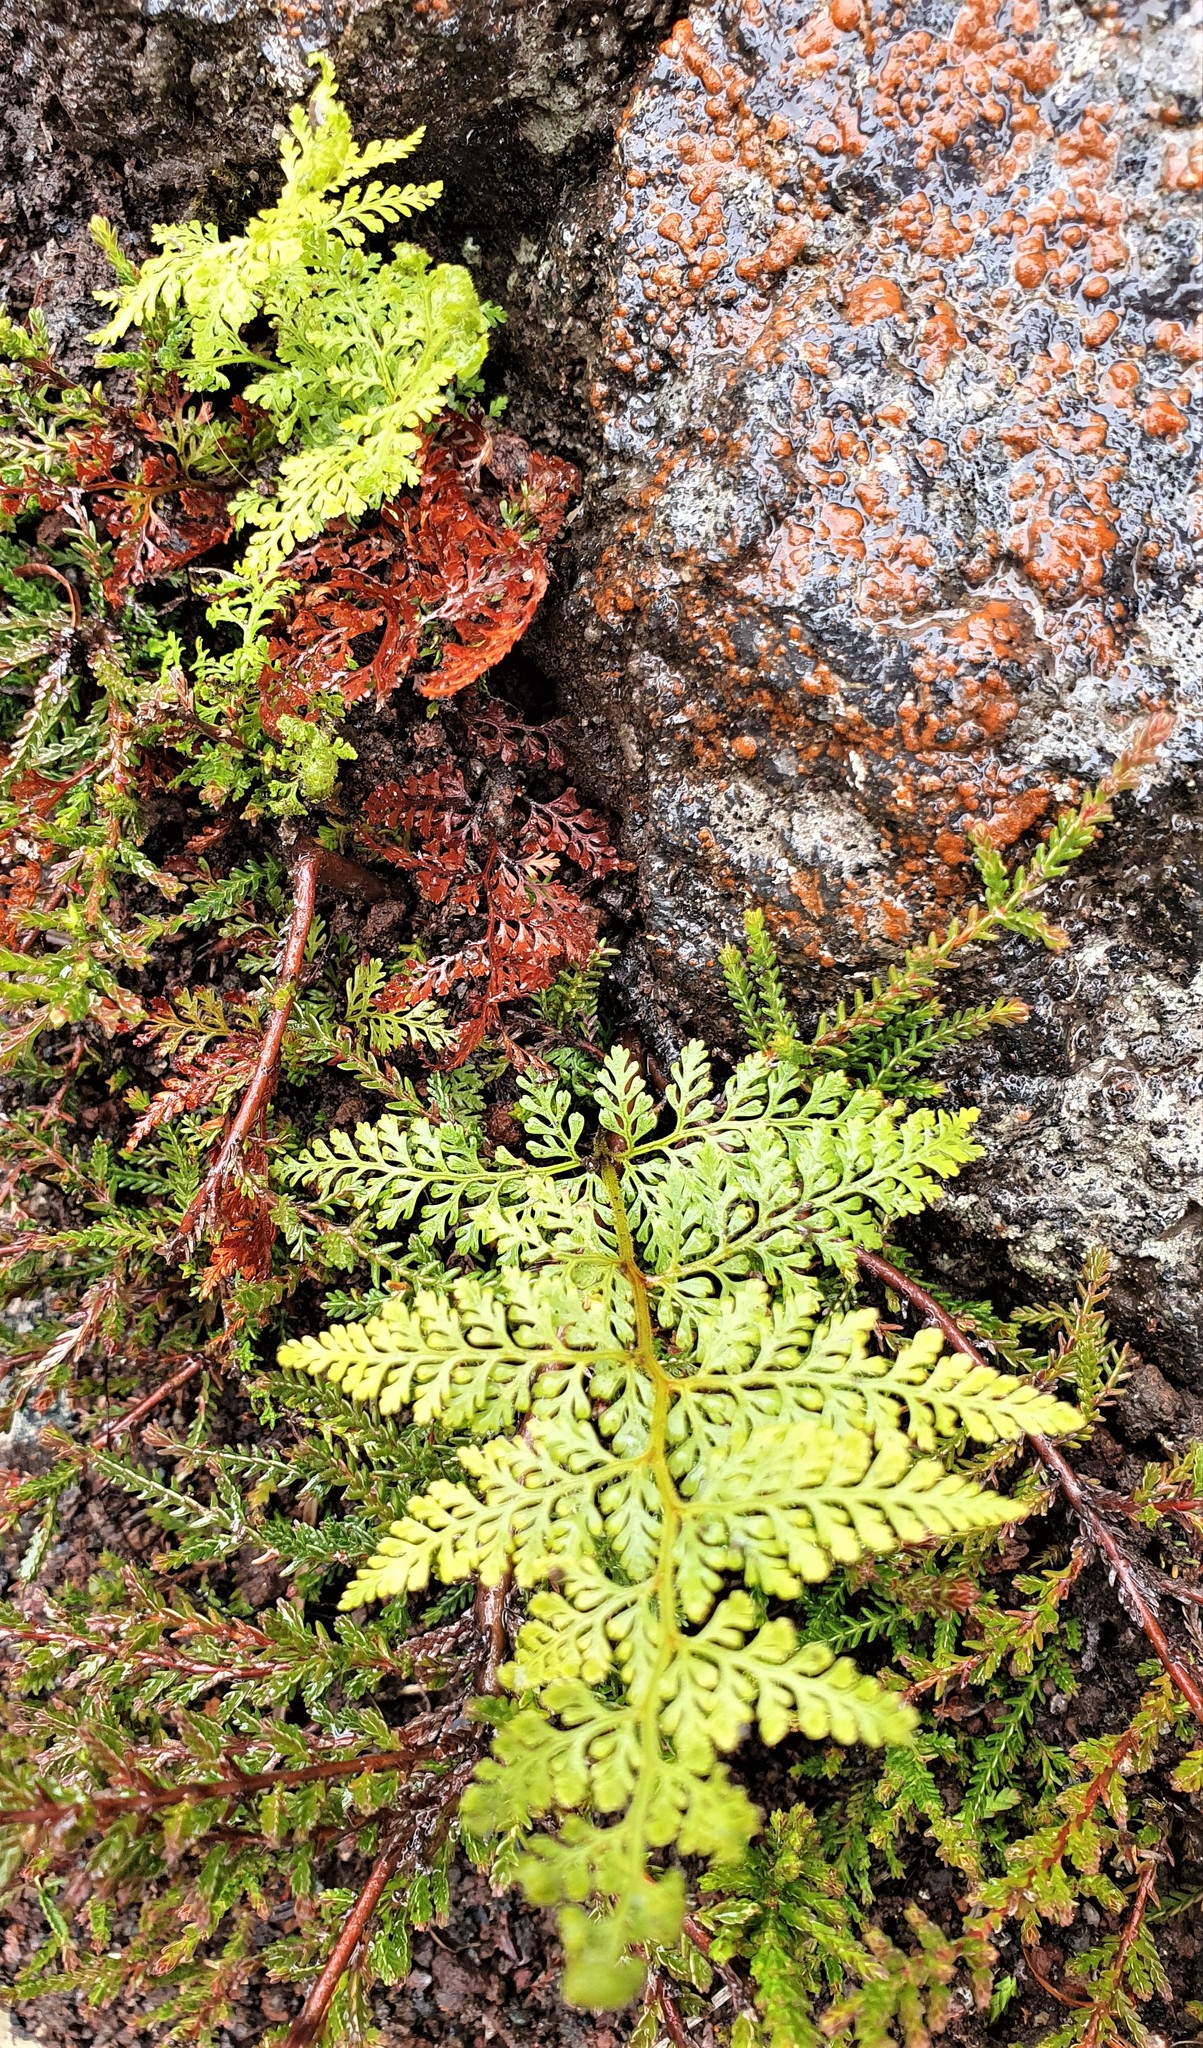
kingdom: Plantae
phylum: Tracheophyta
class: Polypodiopsida
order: Polypodiales
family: Dennstaedtiaceae
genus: Paesia
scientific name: Paesia scaberula
